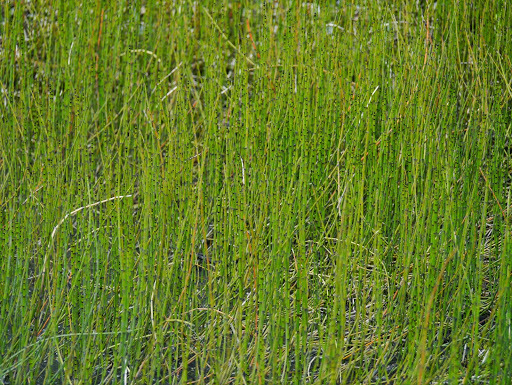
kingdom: Plantae
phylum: Tracheophyta
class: Polypodiopsida
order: Equisetales
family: Equisetaceae
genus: Equisetum
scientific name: Equisetum fluviatile
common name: Water horsetail
